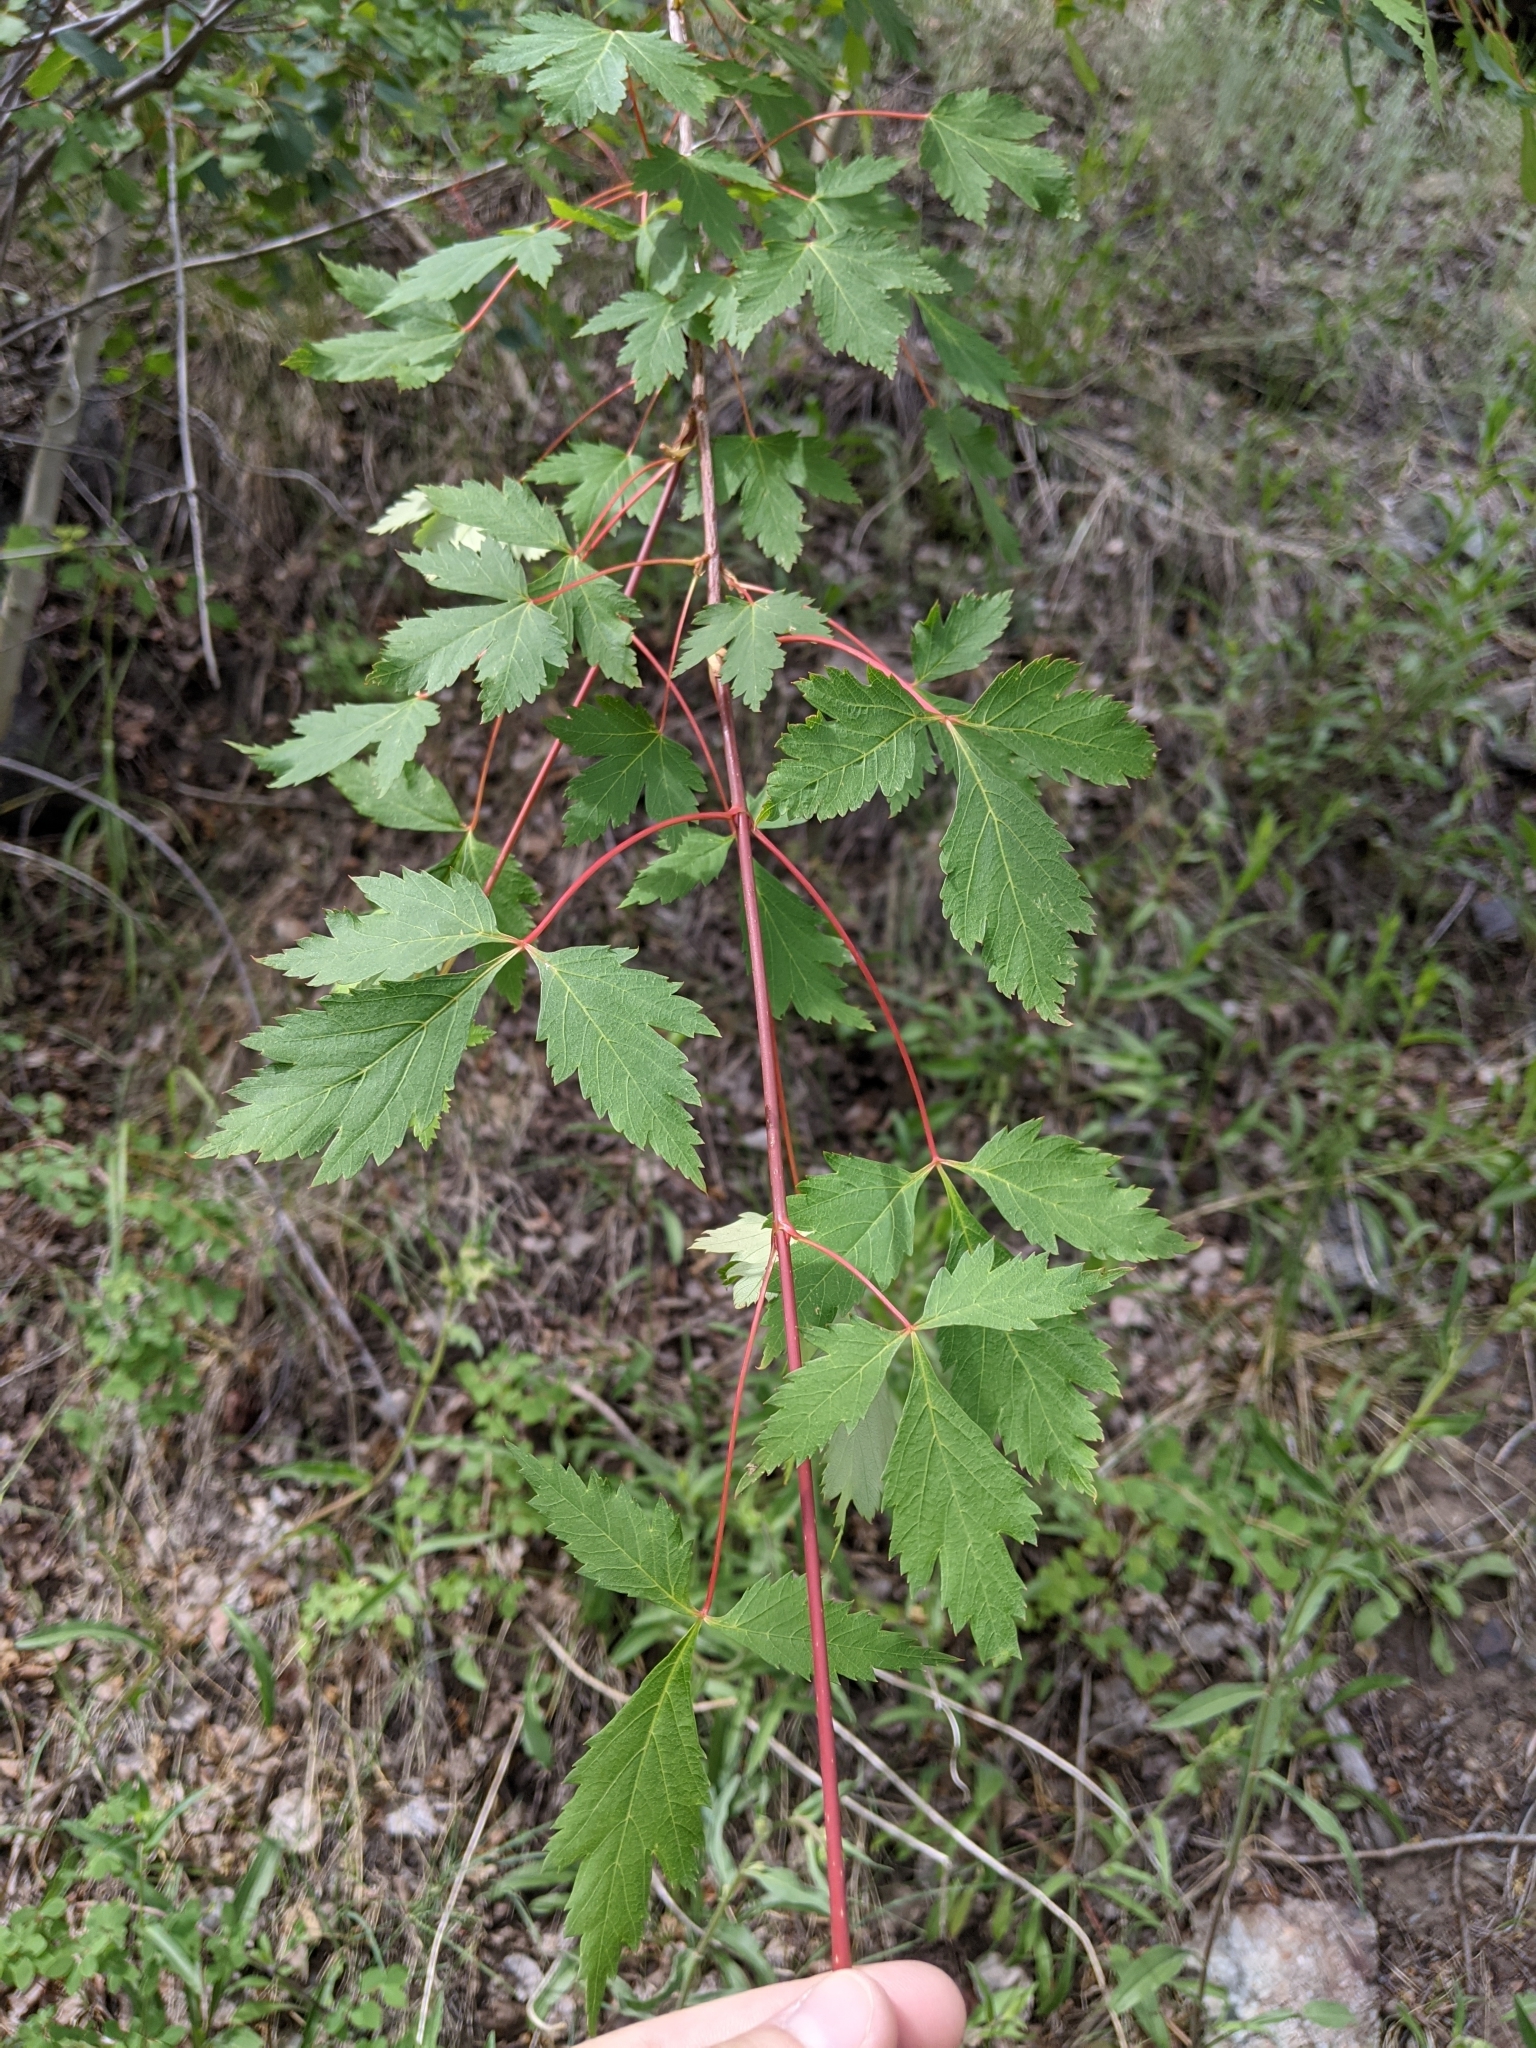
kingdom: Plantae
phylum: Tracheophyta
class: Magnoliopsida
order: Sapindales
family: Sapindaceae
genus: Acer
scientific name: Acer glabrum
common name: Rocky mountain maple
